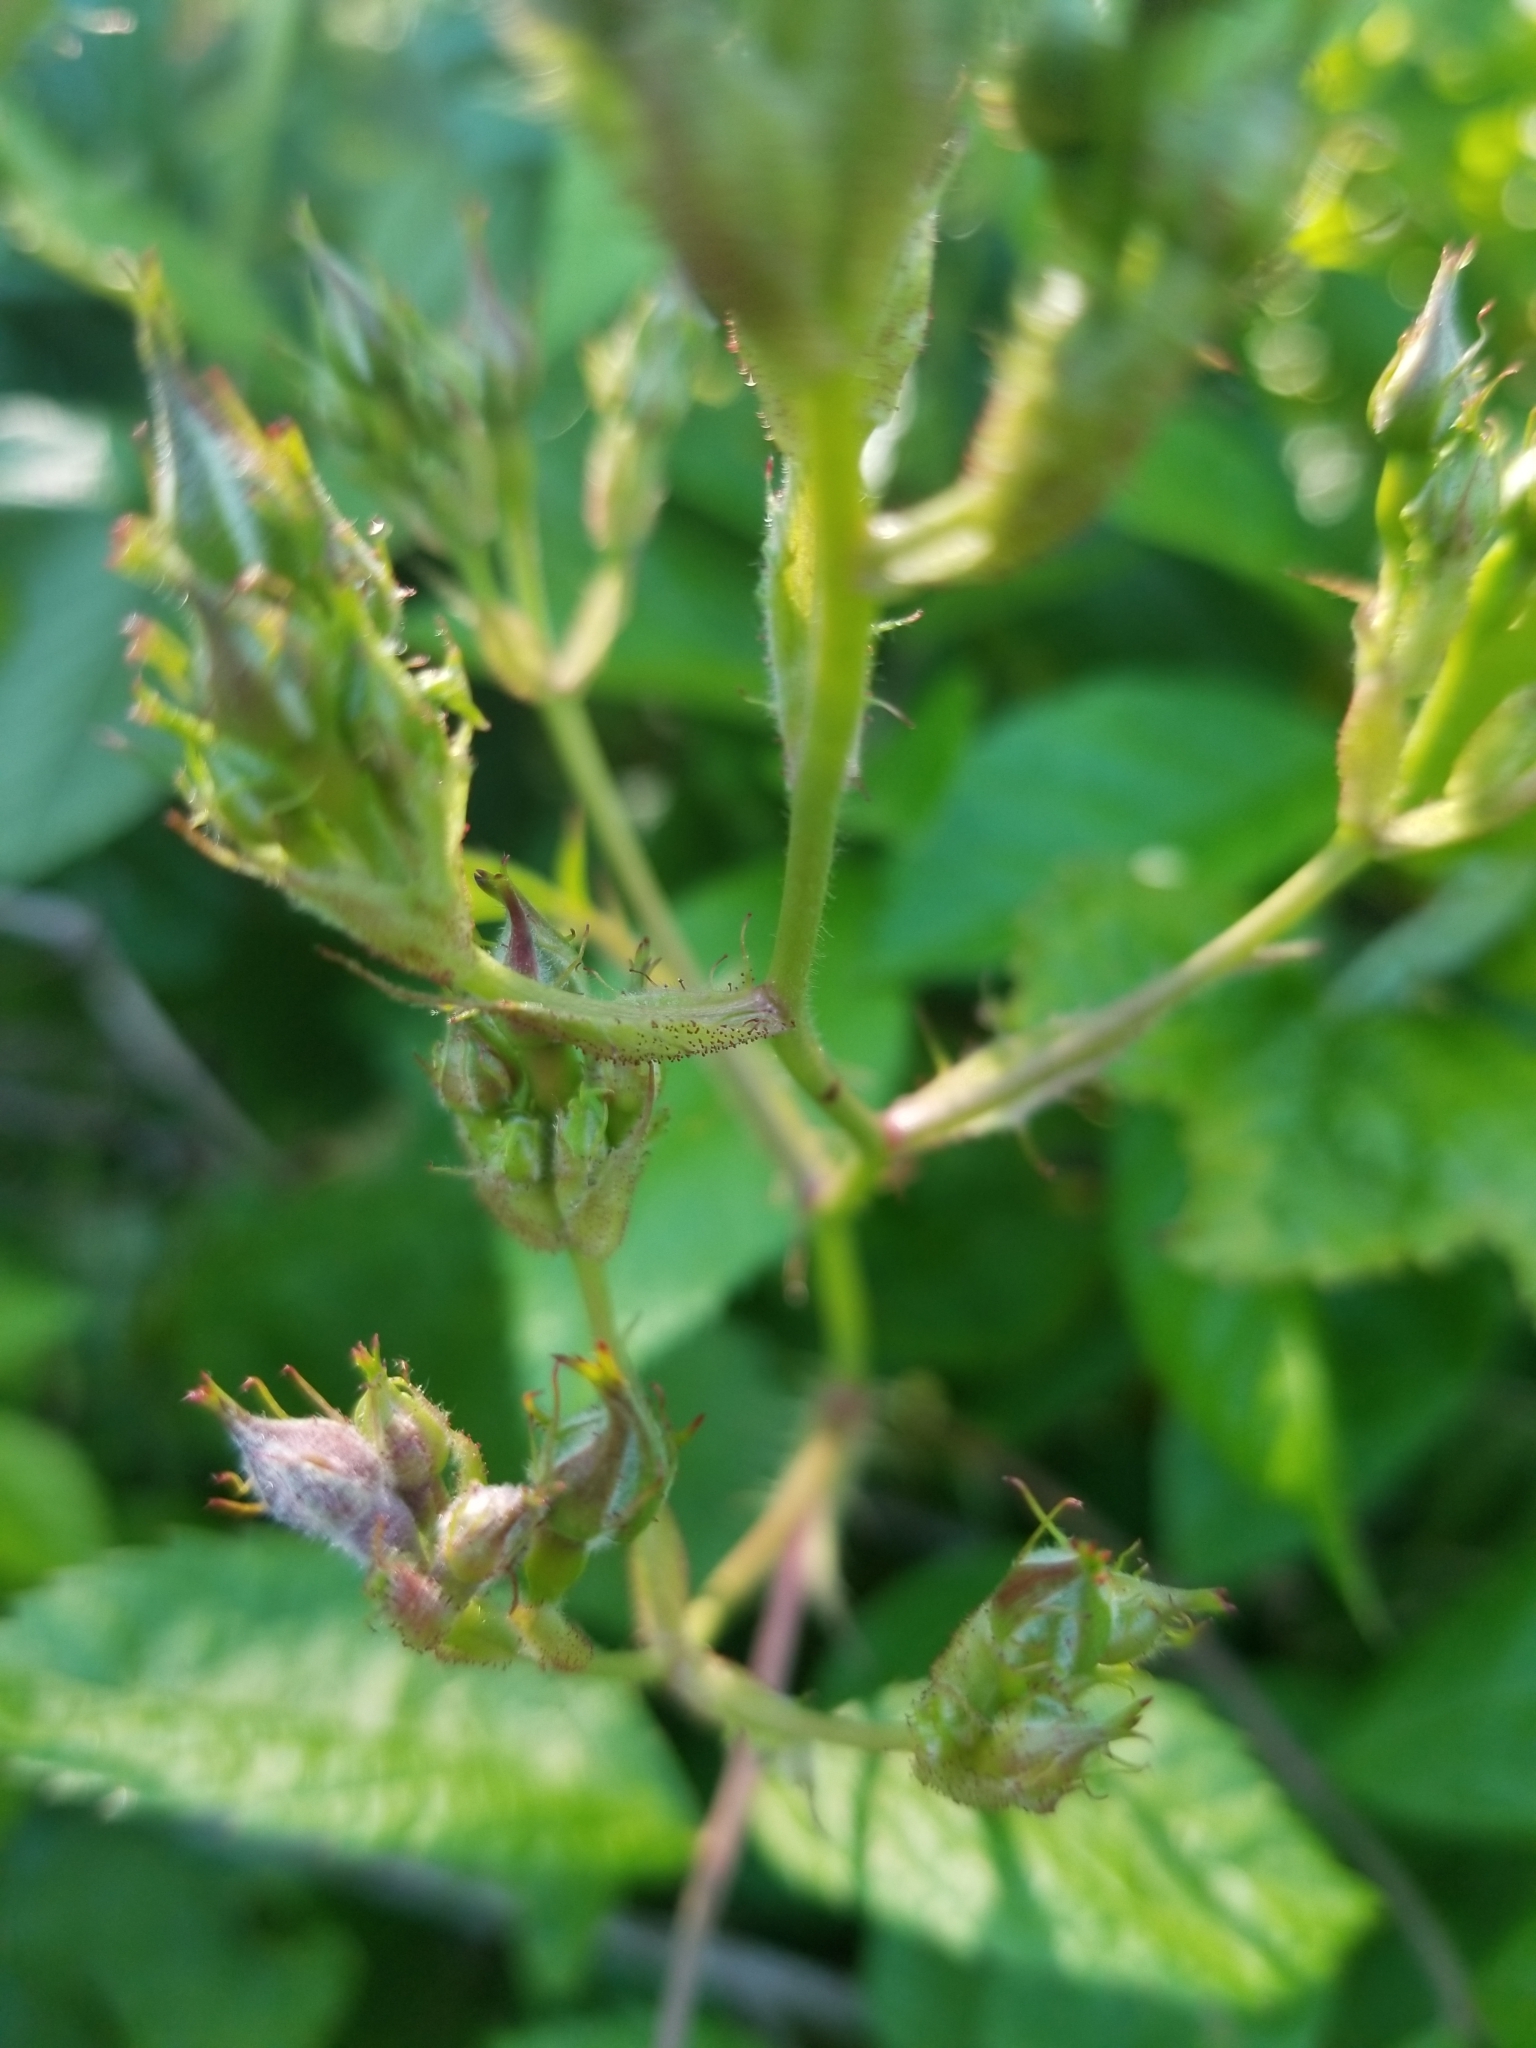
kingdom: Plantae
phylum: Tracheophyta
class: Magnoliopsida
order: Rosales
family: Rosaceae
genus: Rosa
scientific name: Rosa multiflora
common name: Multiflora rose
